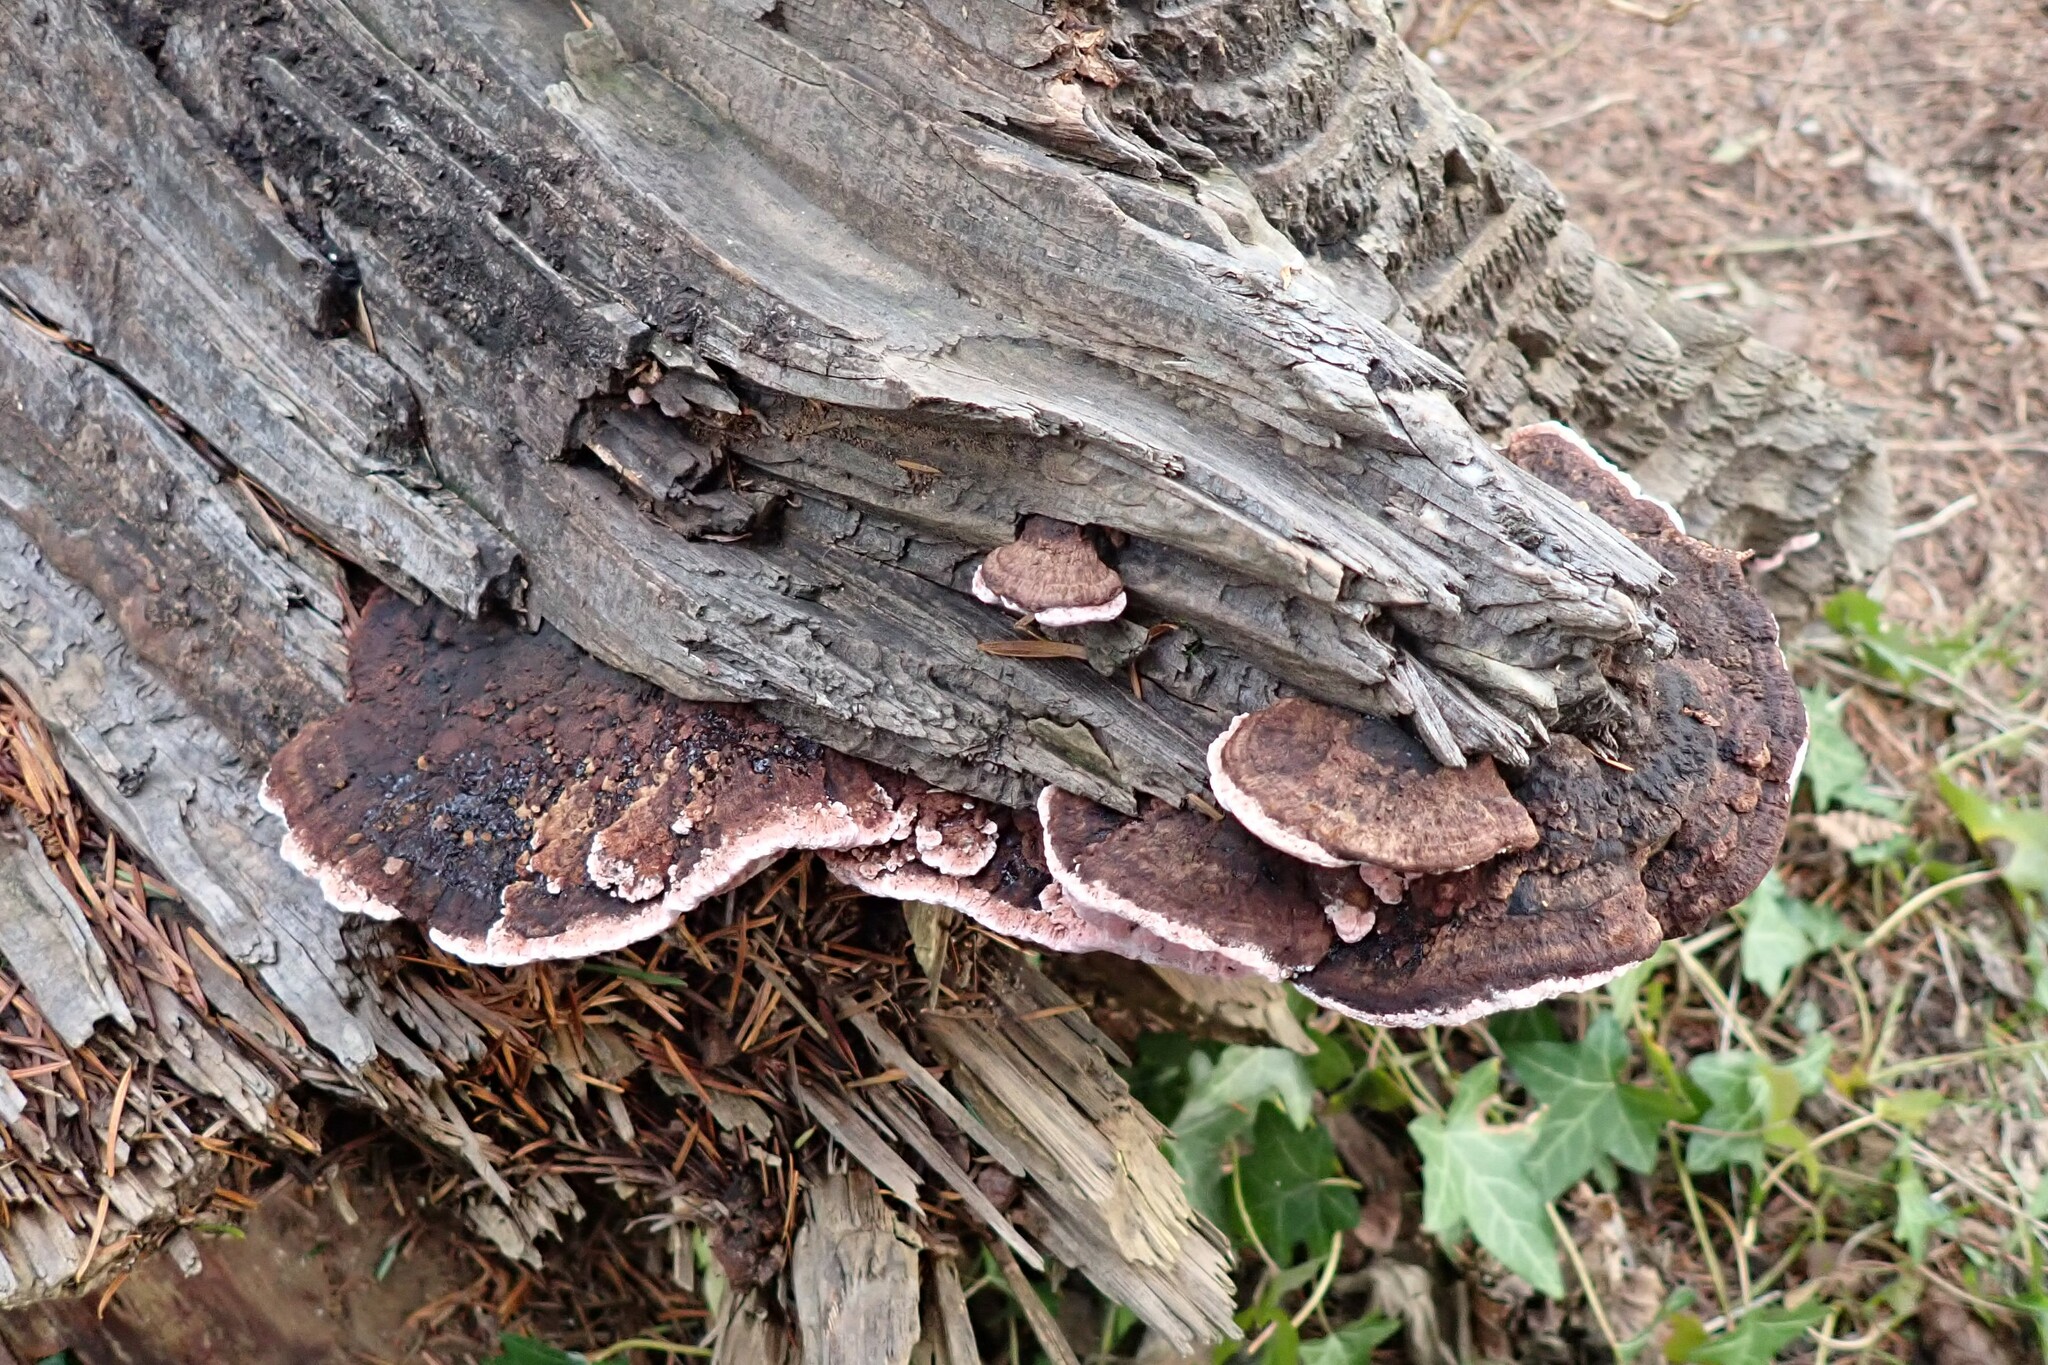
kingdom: Fungi
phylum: Basidiomycota
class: Agaricomycetes
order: Polyporales
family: Fomitopsidaceae
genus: Rhodofomes
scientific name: Rhodofomes cajanderi
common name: Rosy conk
